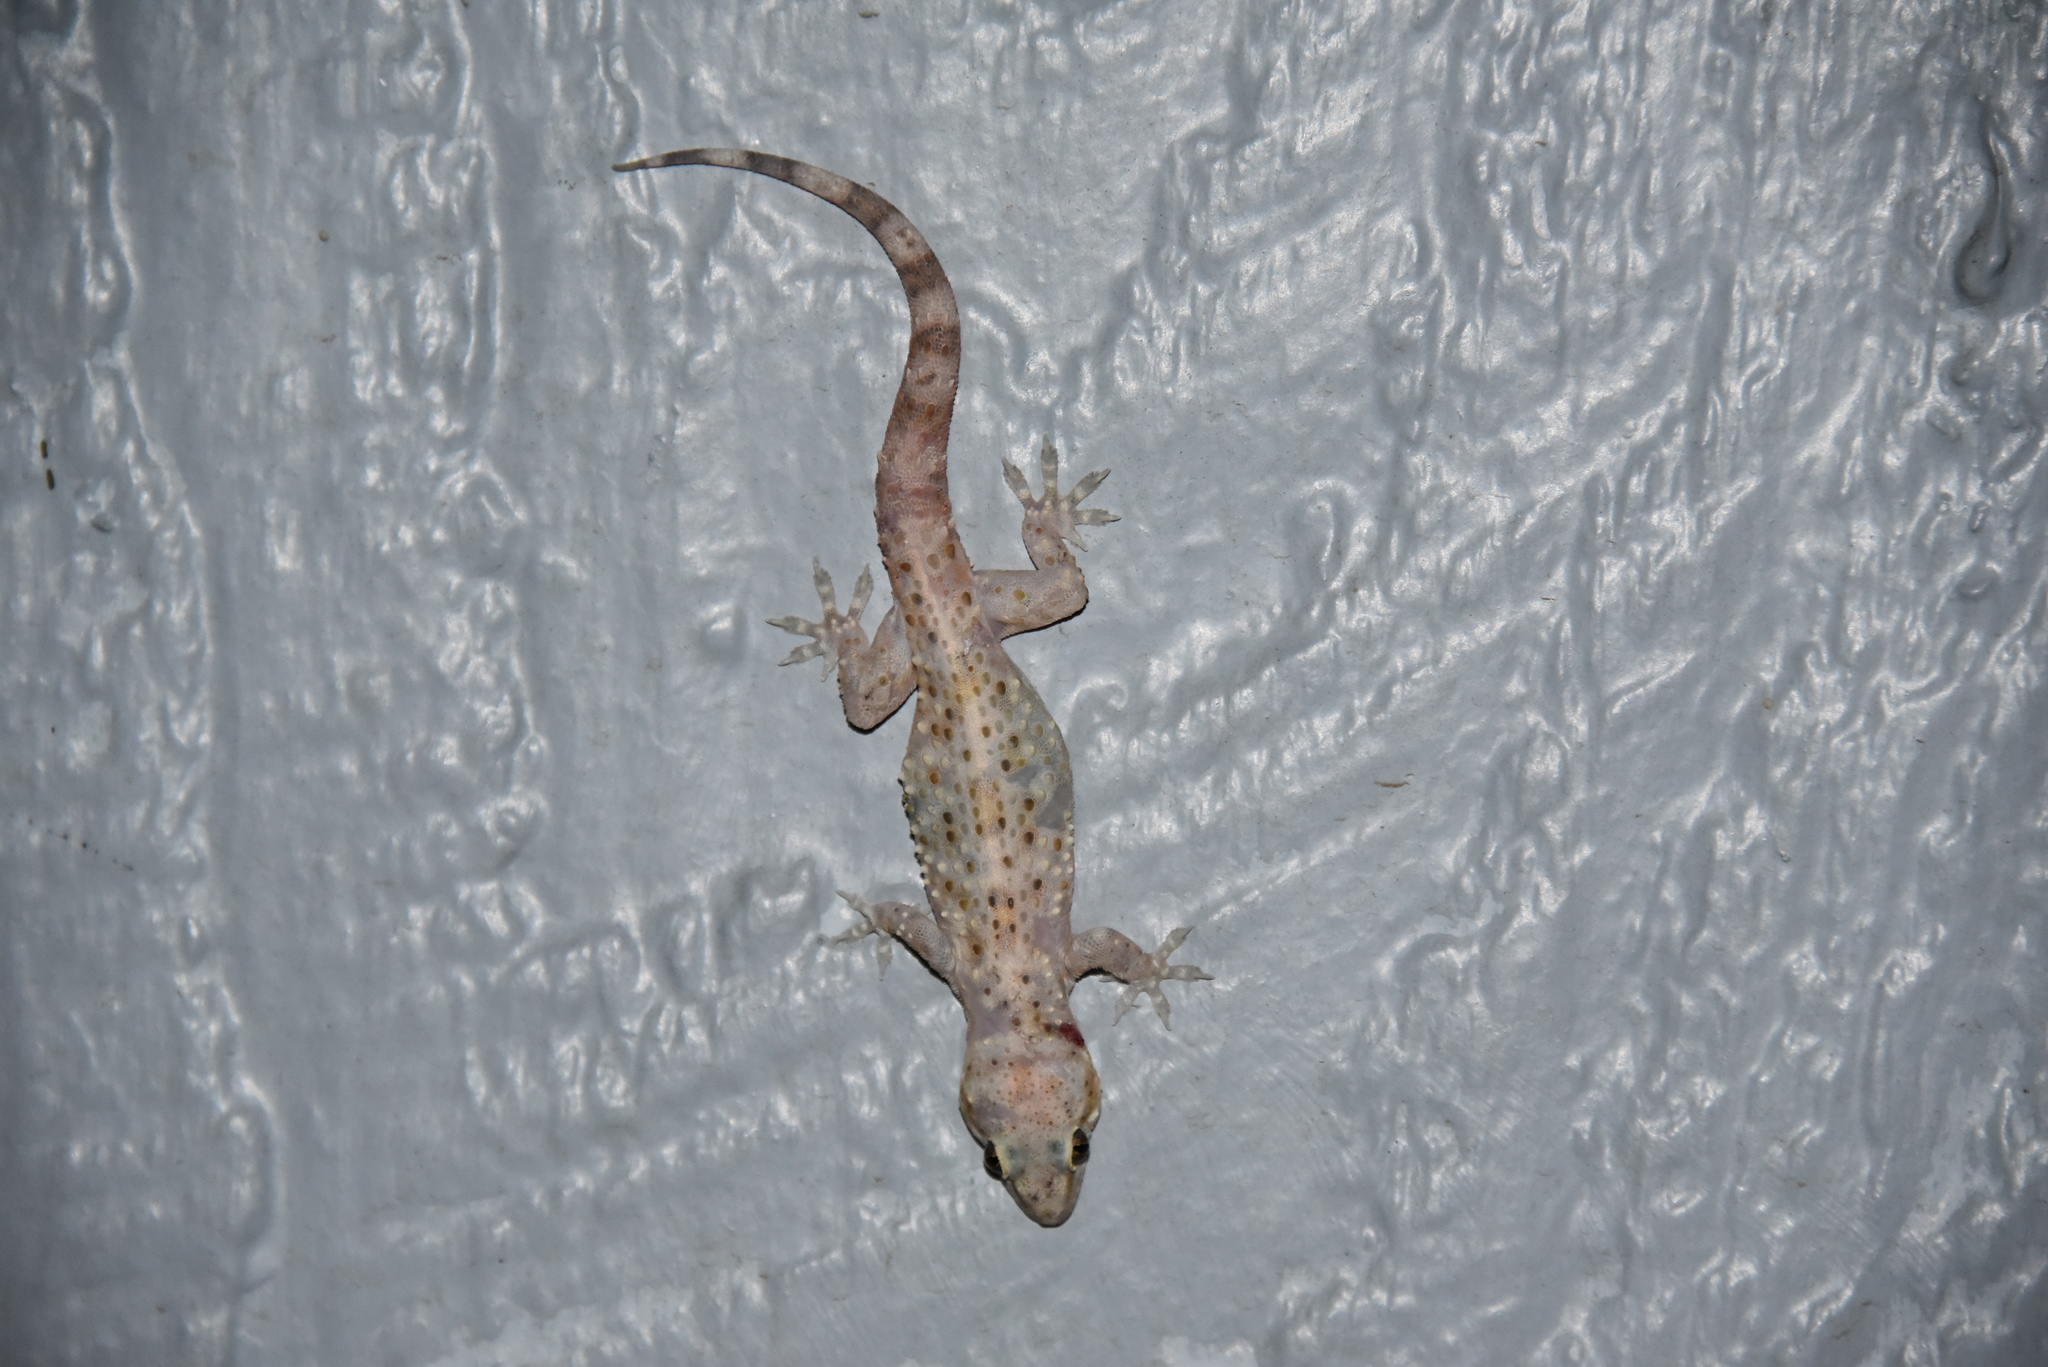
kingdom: Animalia
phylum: Chordata
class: Squamata
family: Gekkonidae
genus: Hemidactylus
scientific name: Hemidactylus turcicus
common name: Turkish gecko
